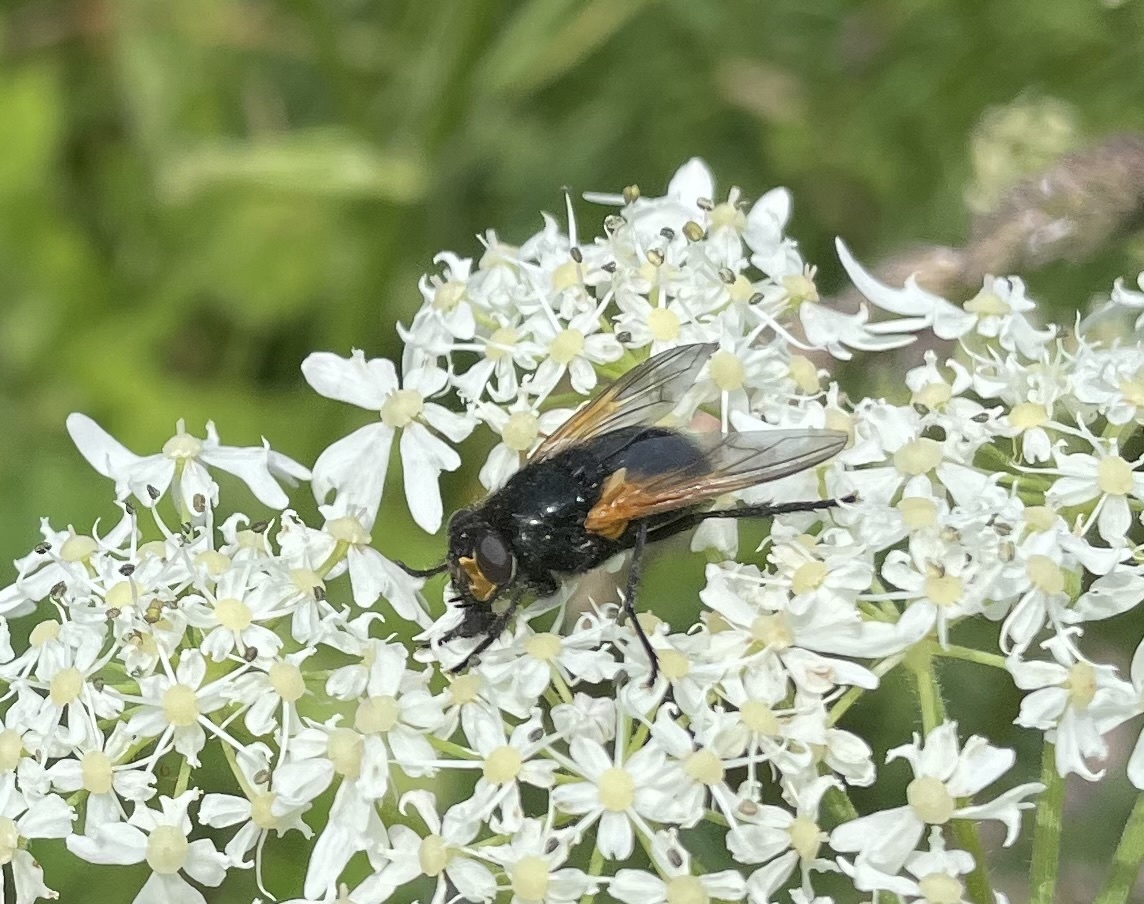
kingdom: Animalia
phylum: Arthropoda
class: Insecta
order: Diptera
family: Muscidae
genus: Mesembrina
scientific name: Mesembrina meridiana
